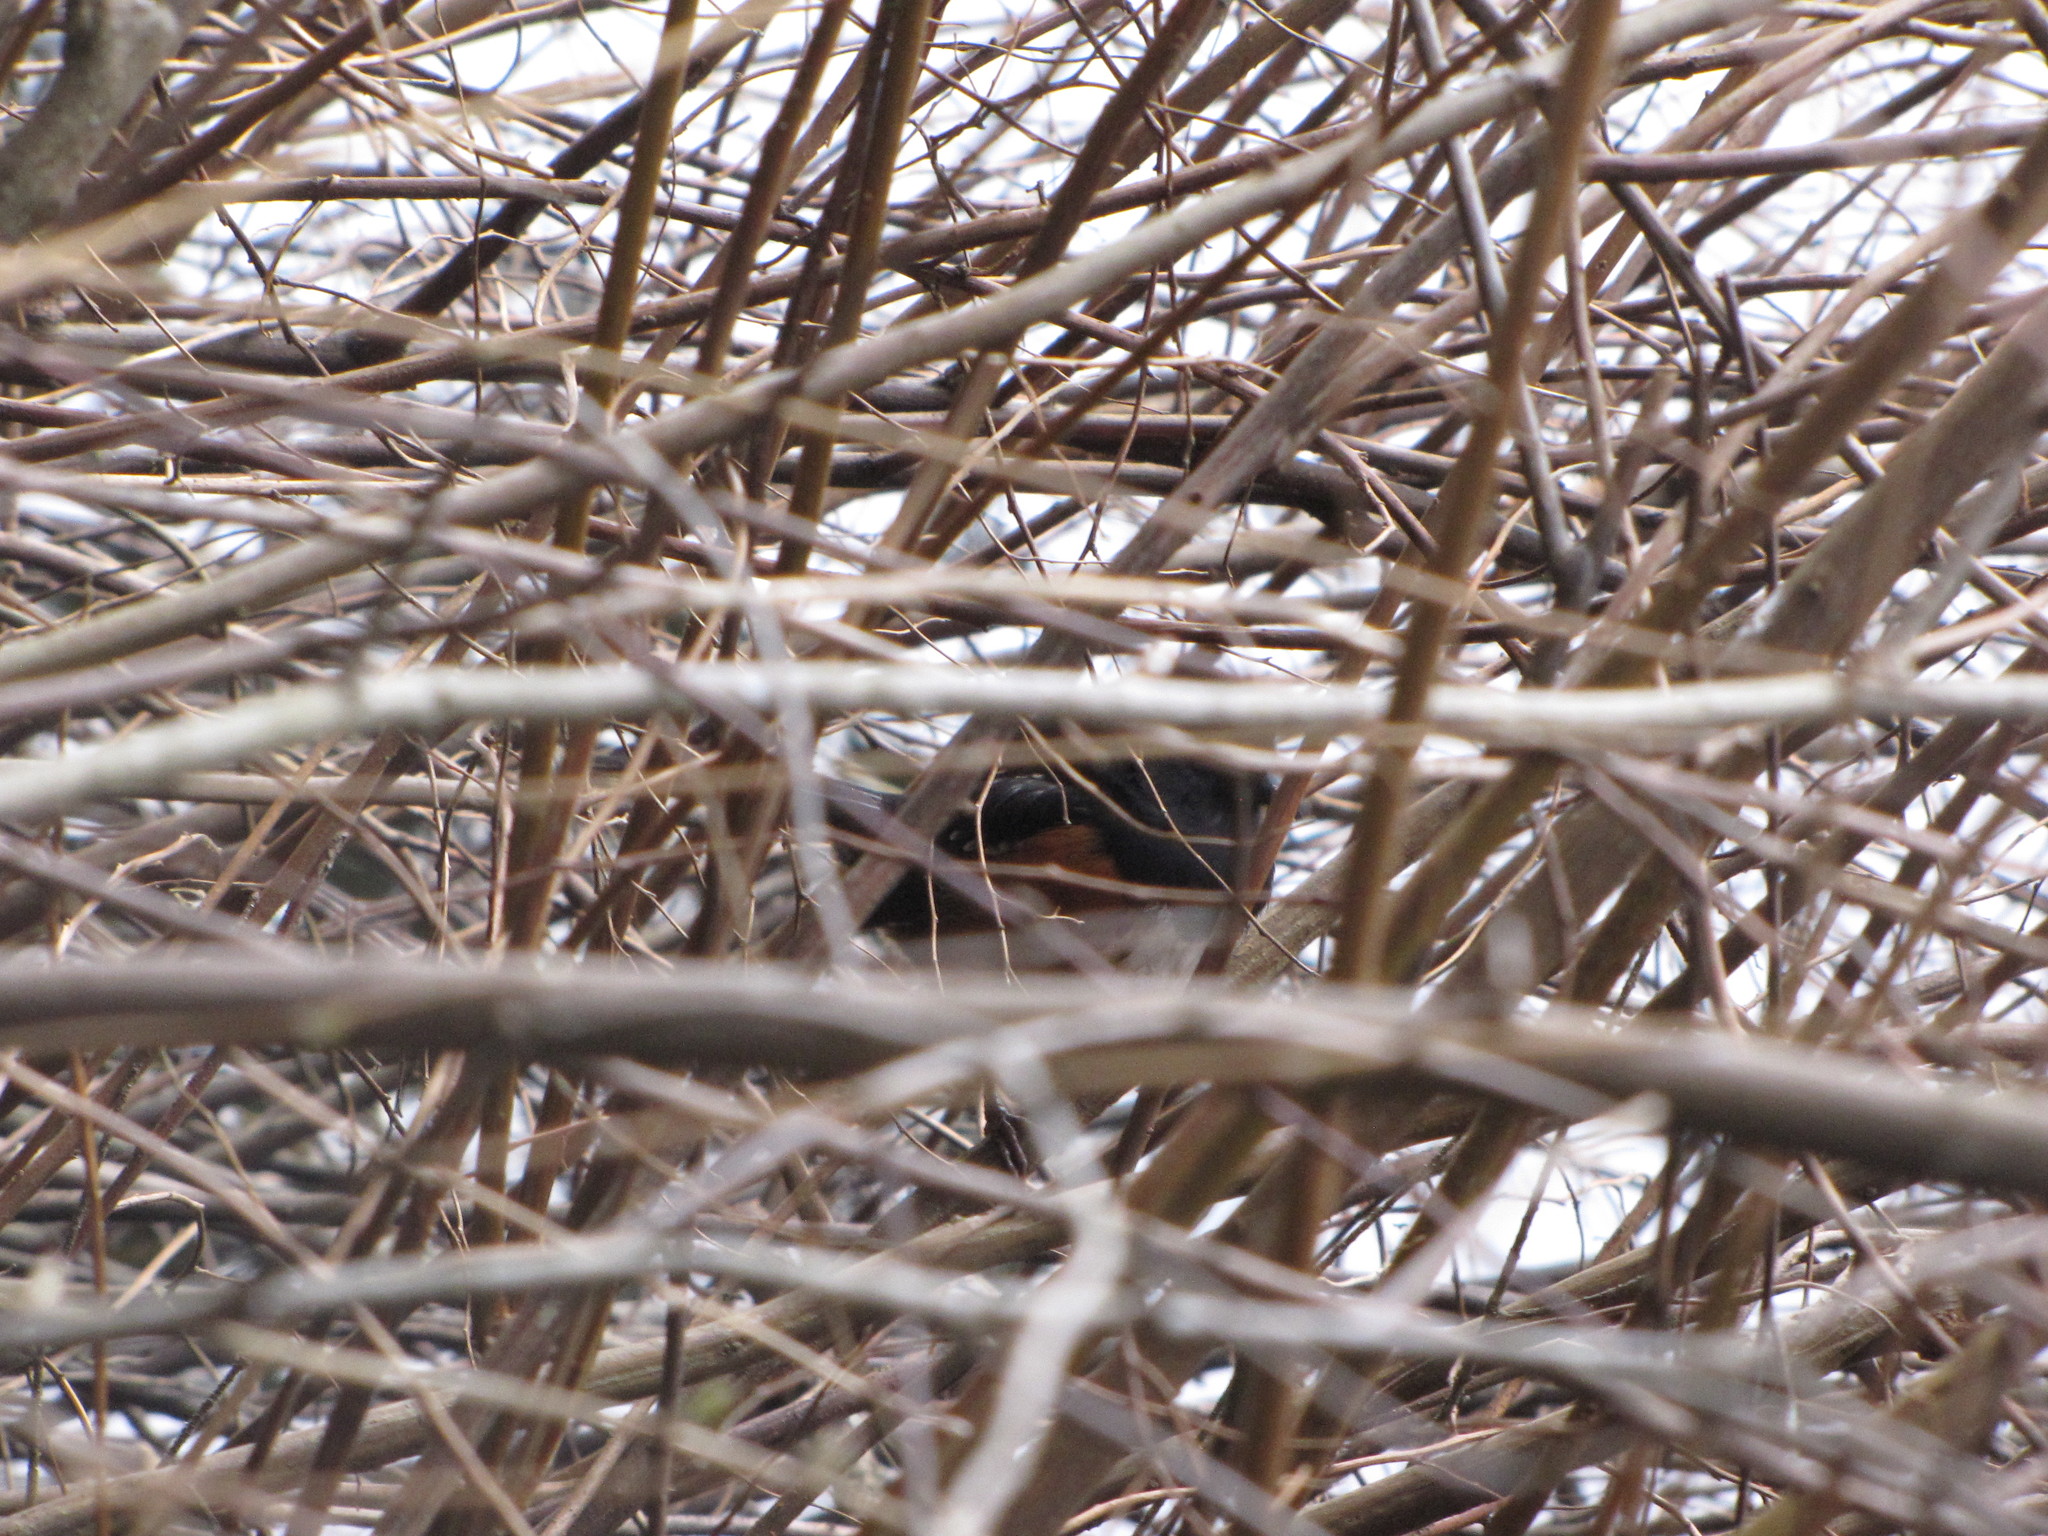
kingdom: Animalia
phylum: Chordata
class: Aves
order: Passeriformes
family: Passerellidae
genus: Pipilo
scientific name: Pipilo maculatus
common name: Spotted towhee
